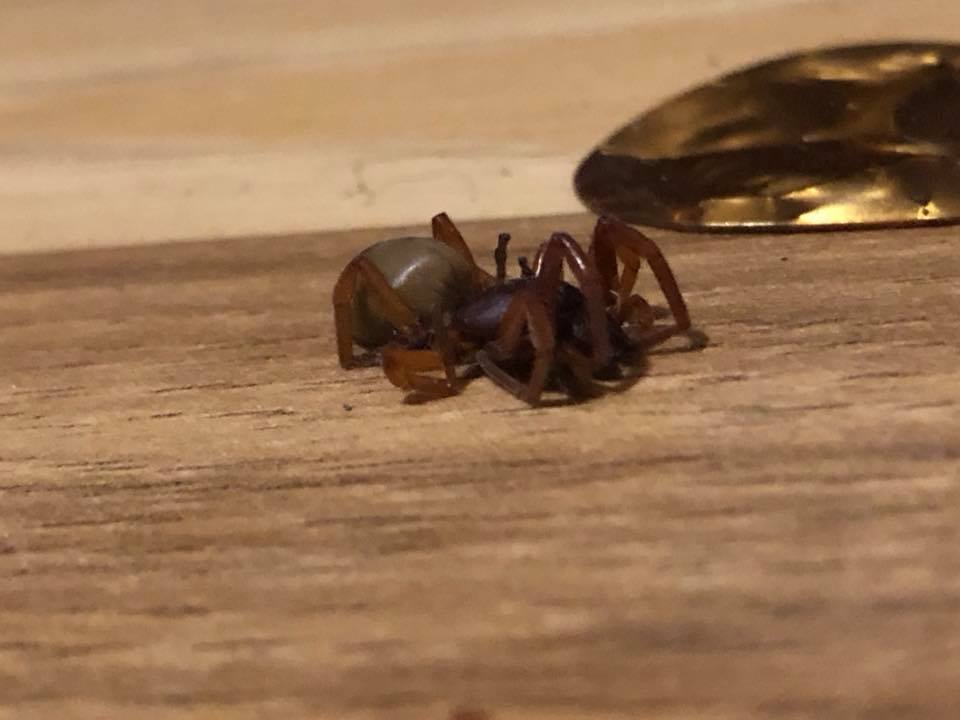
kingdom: Animalia
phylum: Arthropoda
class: Arachnida
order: Araneae
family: Dysderidae
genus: Dysdera
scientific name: Dysdera crocata
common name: Woodlouse spider
